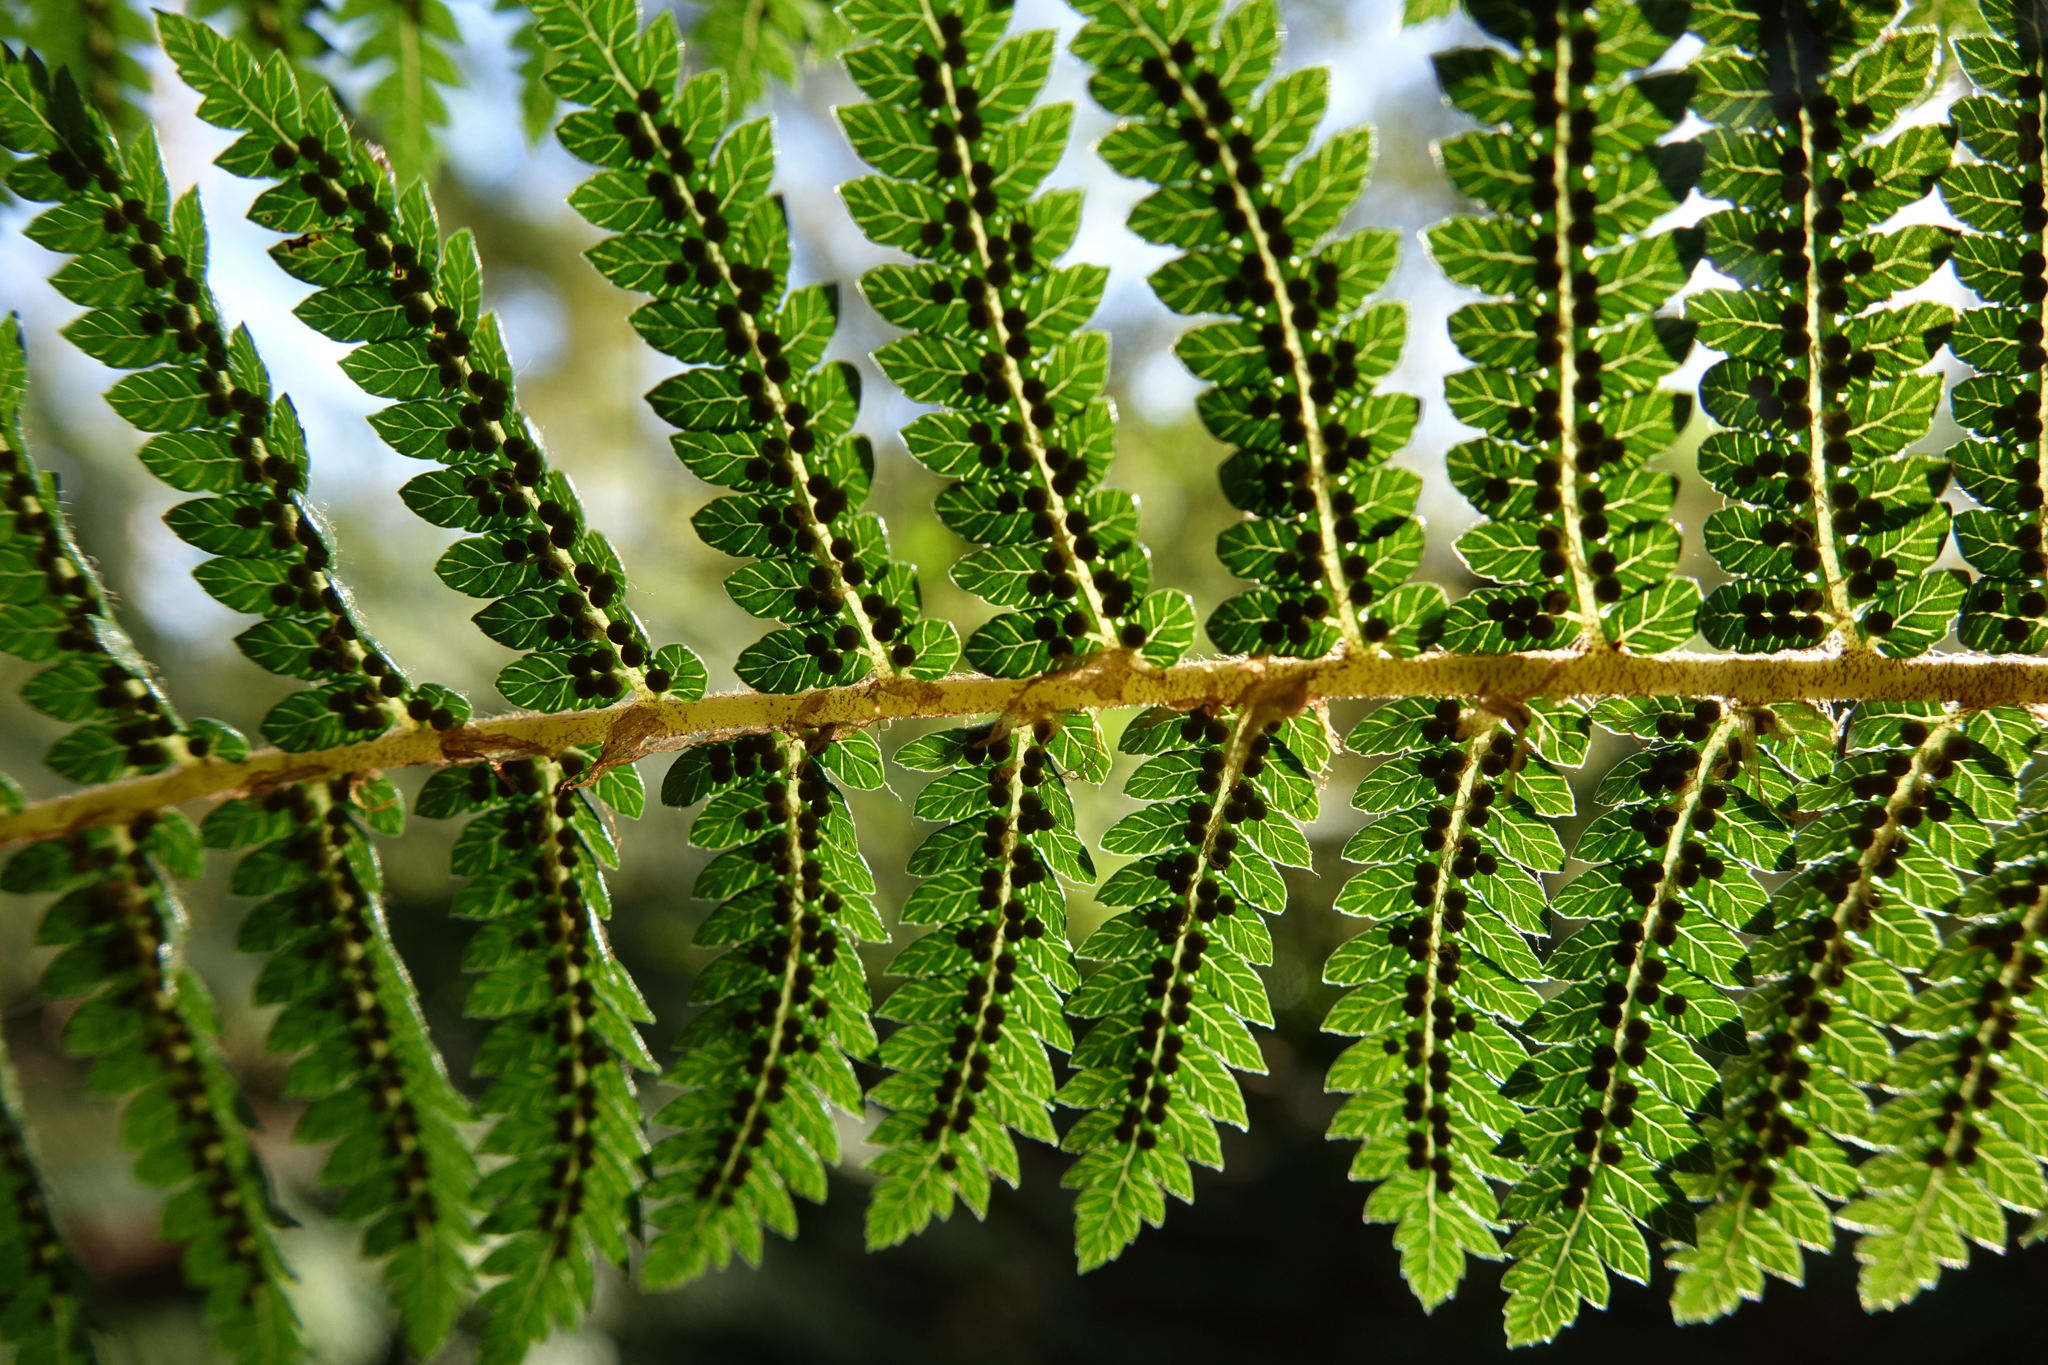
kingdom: Plantae
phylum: Tracheophyta
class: Polypodiopsida
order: Cyatheales
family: Cyatheaceae
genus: Alsophila
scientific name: Alsophila smithii
